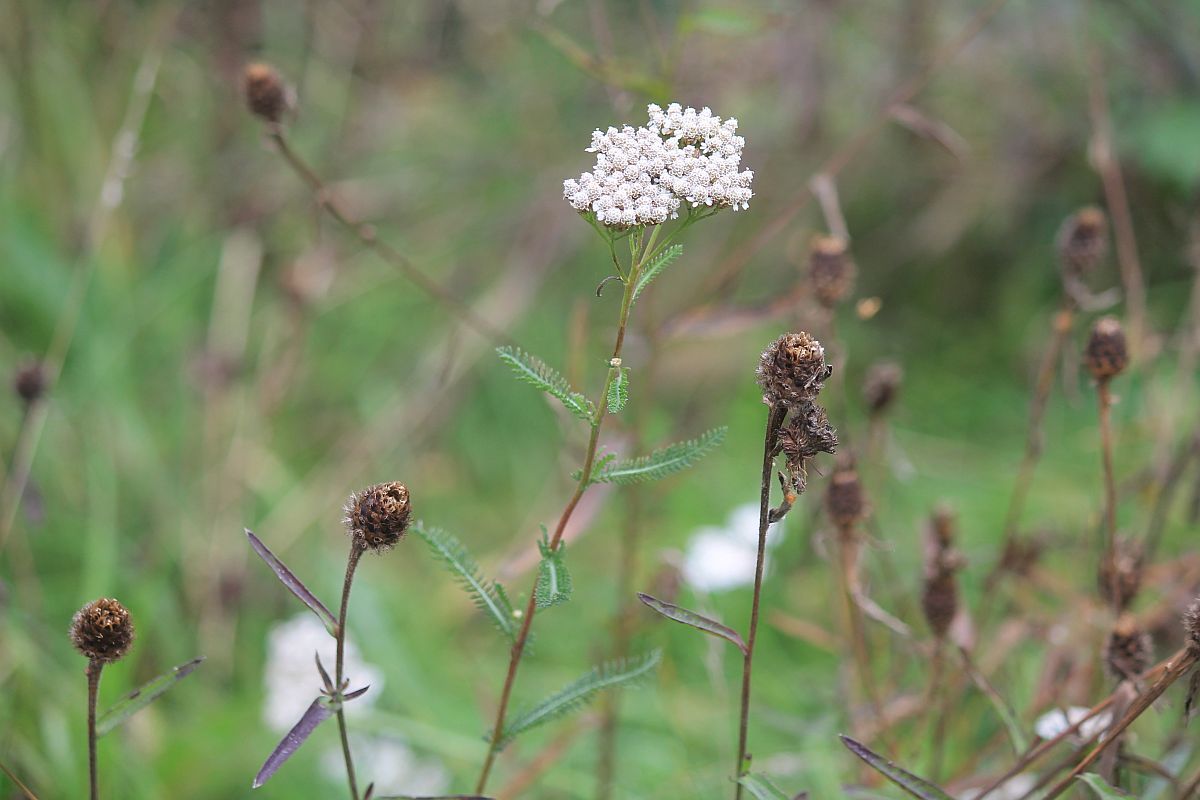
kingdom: Plantae
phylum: Tracheophyta
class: Magnoliopsida
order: Asterales
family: Asteraceae
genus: Achillea
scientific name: Achillea millefolium
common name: Yarrow
